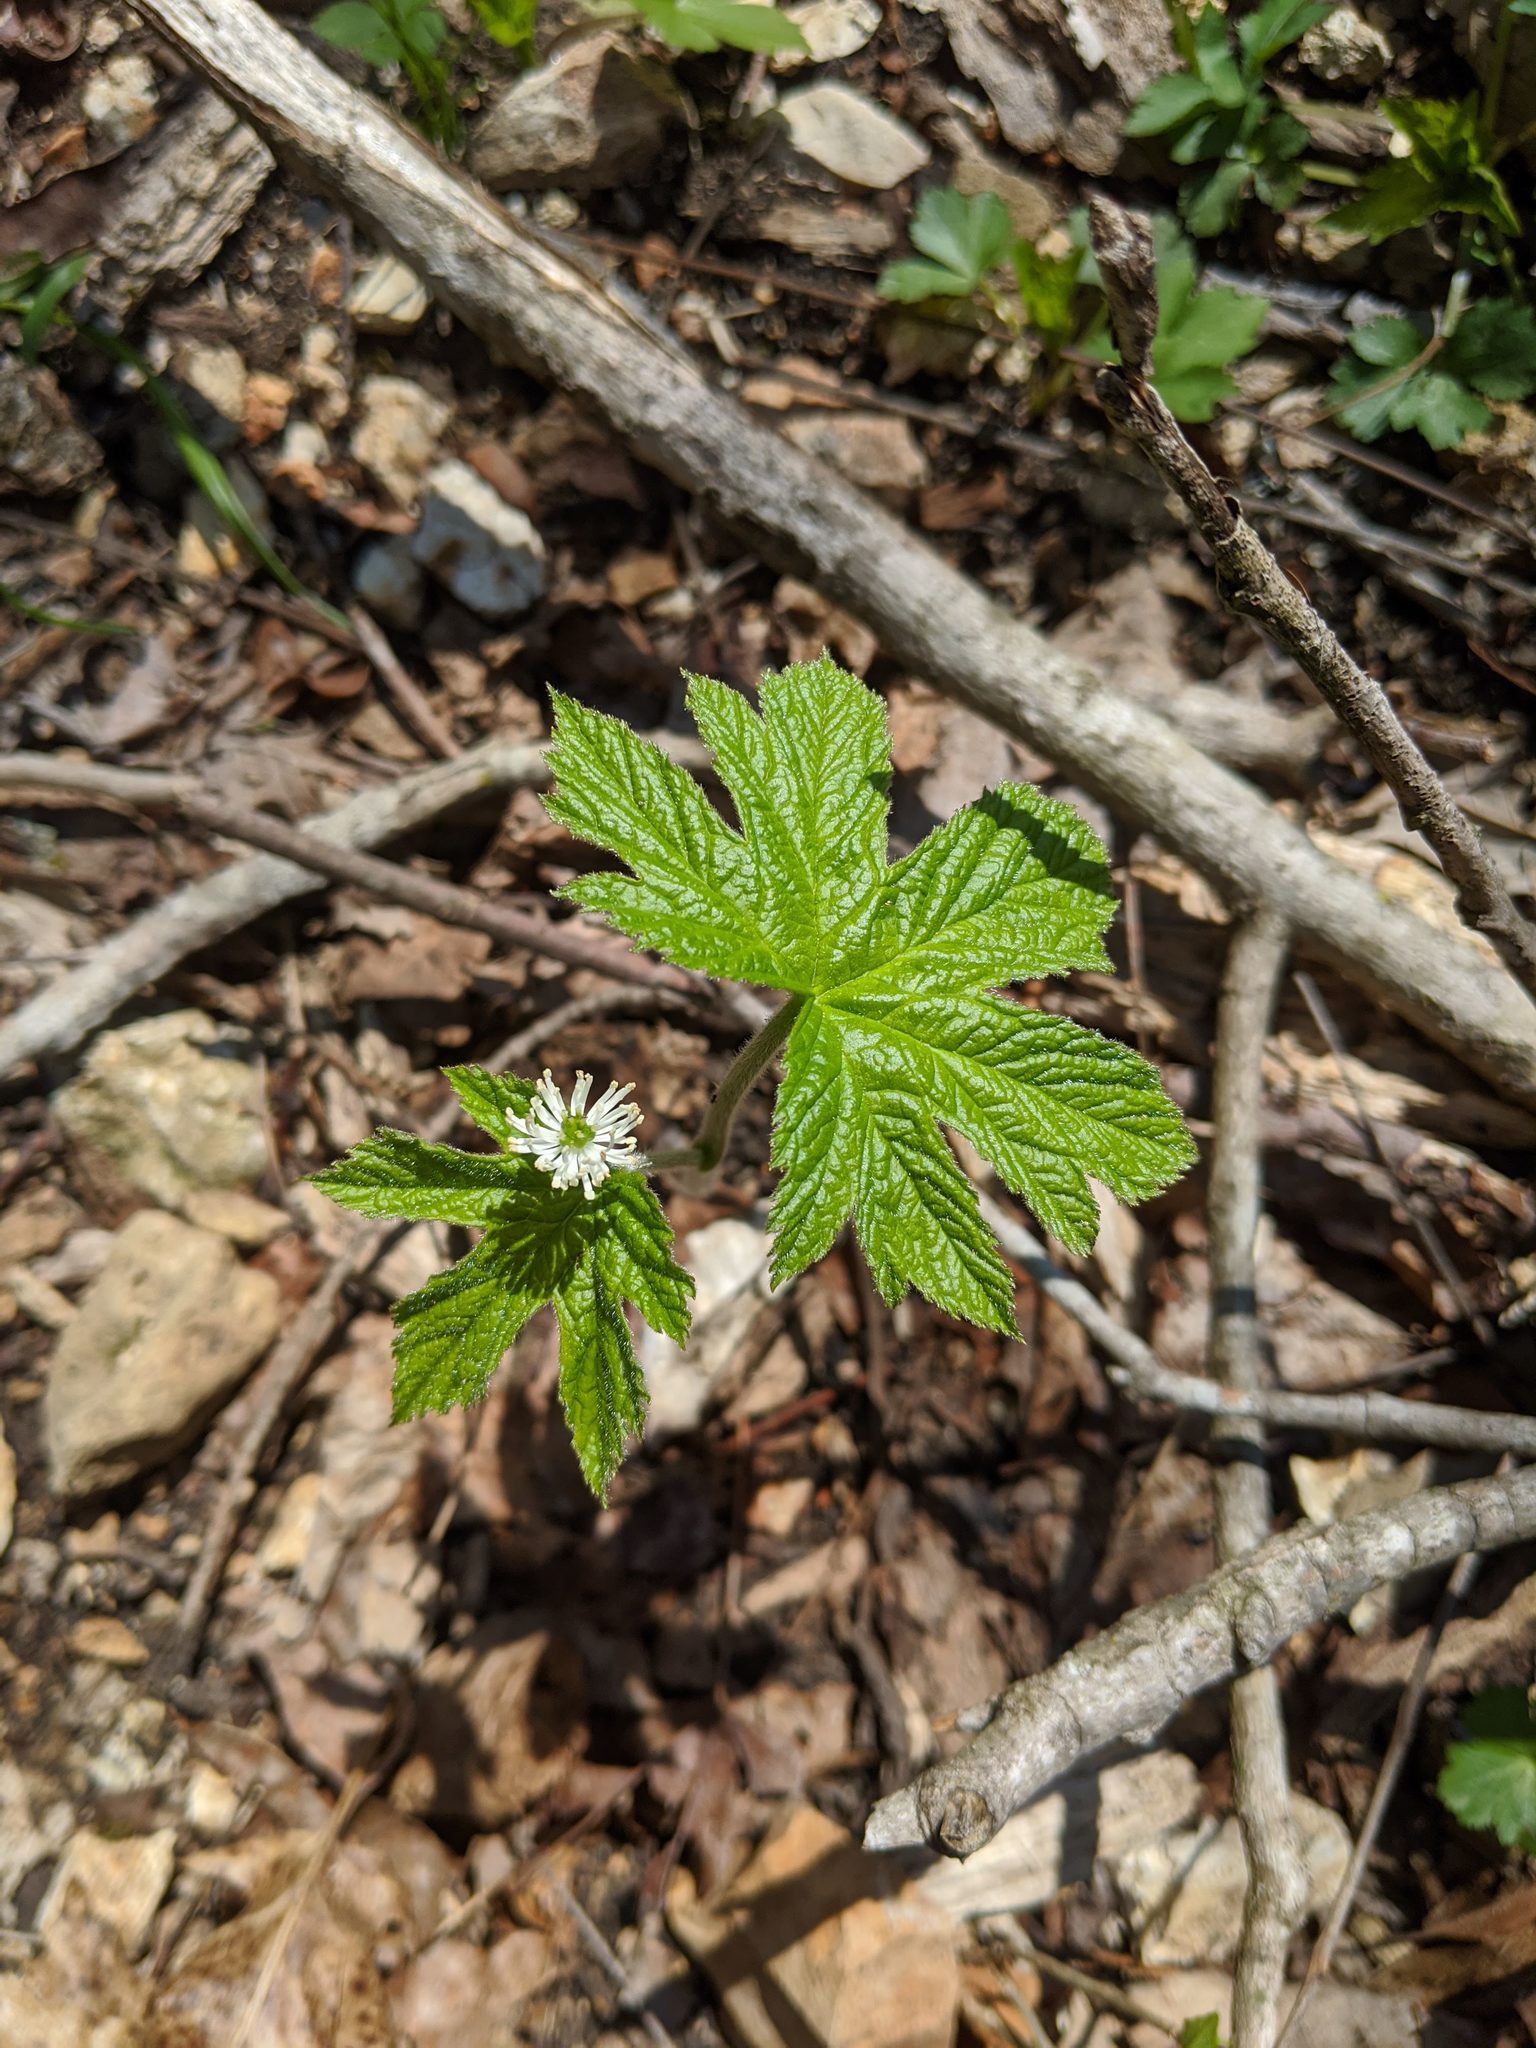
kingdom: Plantae
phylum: Tracheophyta
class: Magnoliopsida
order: Ranunculales
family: Ranunculaceae
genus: Hydrastis
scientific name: Hydrastis canadensis
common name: Goldenseal
